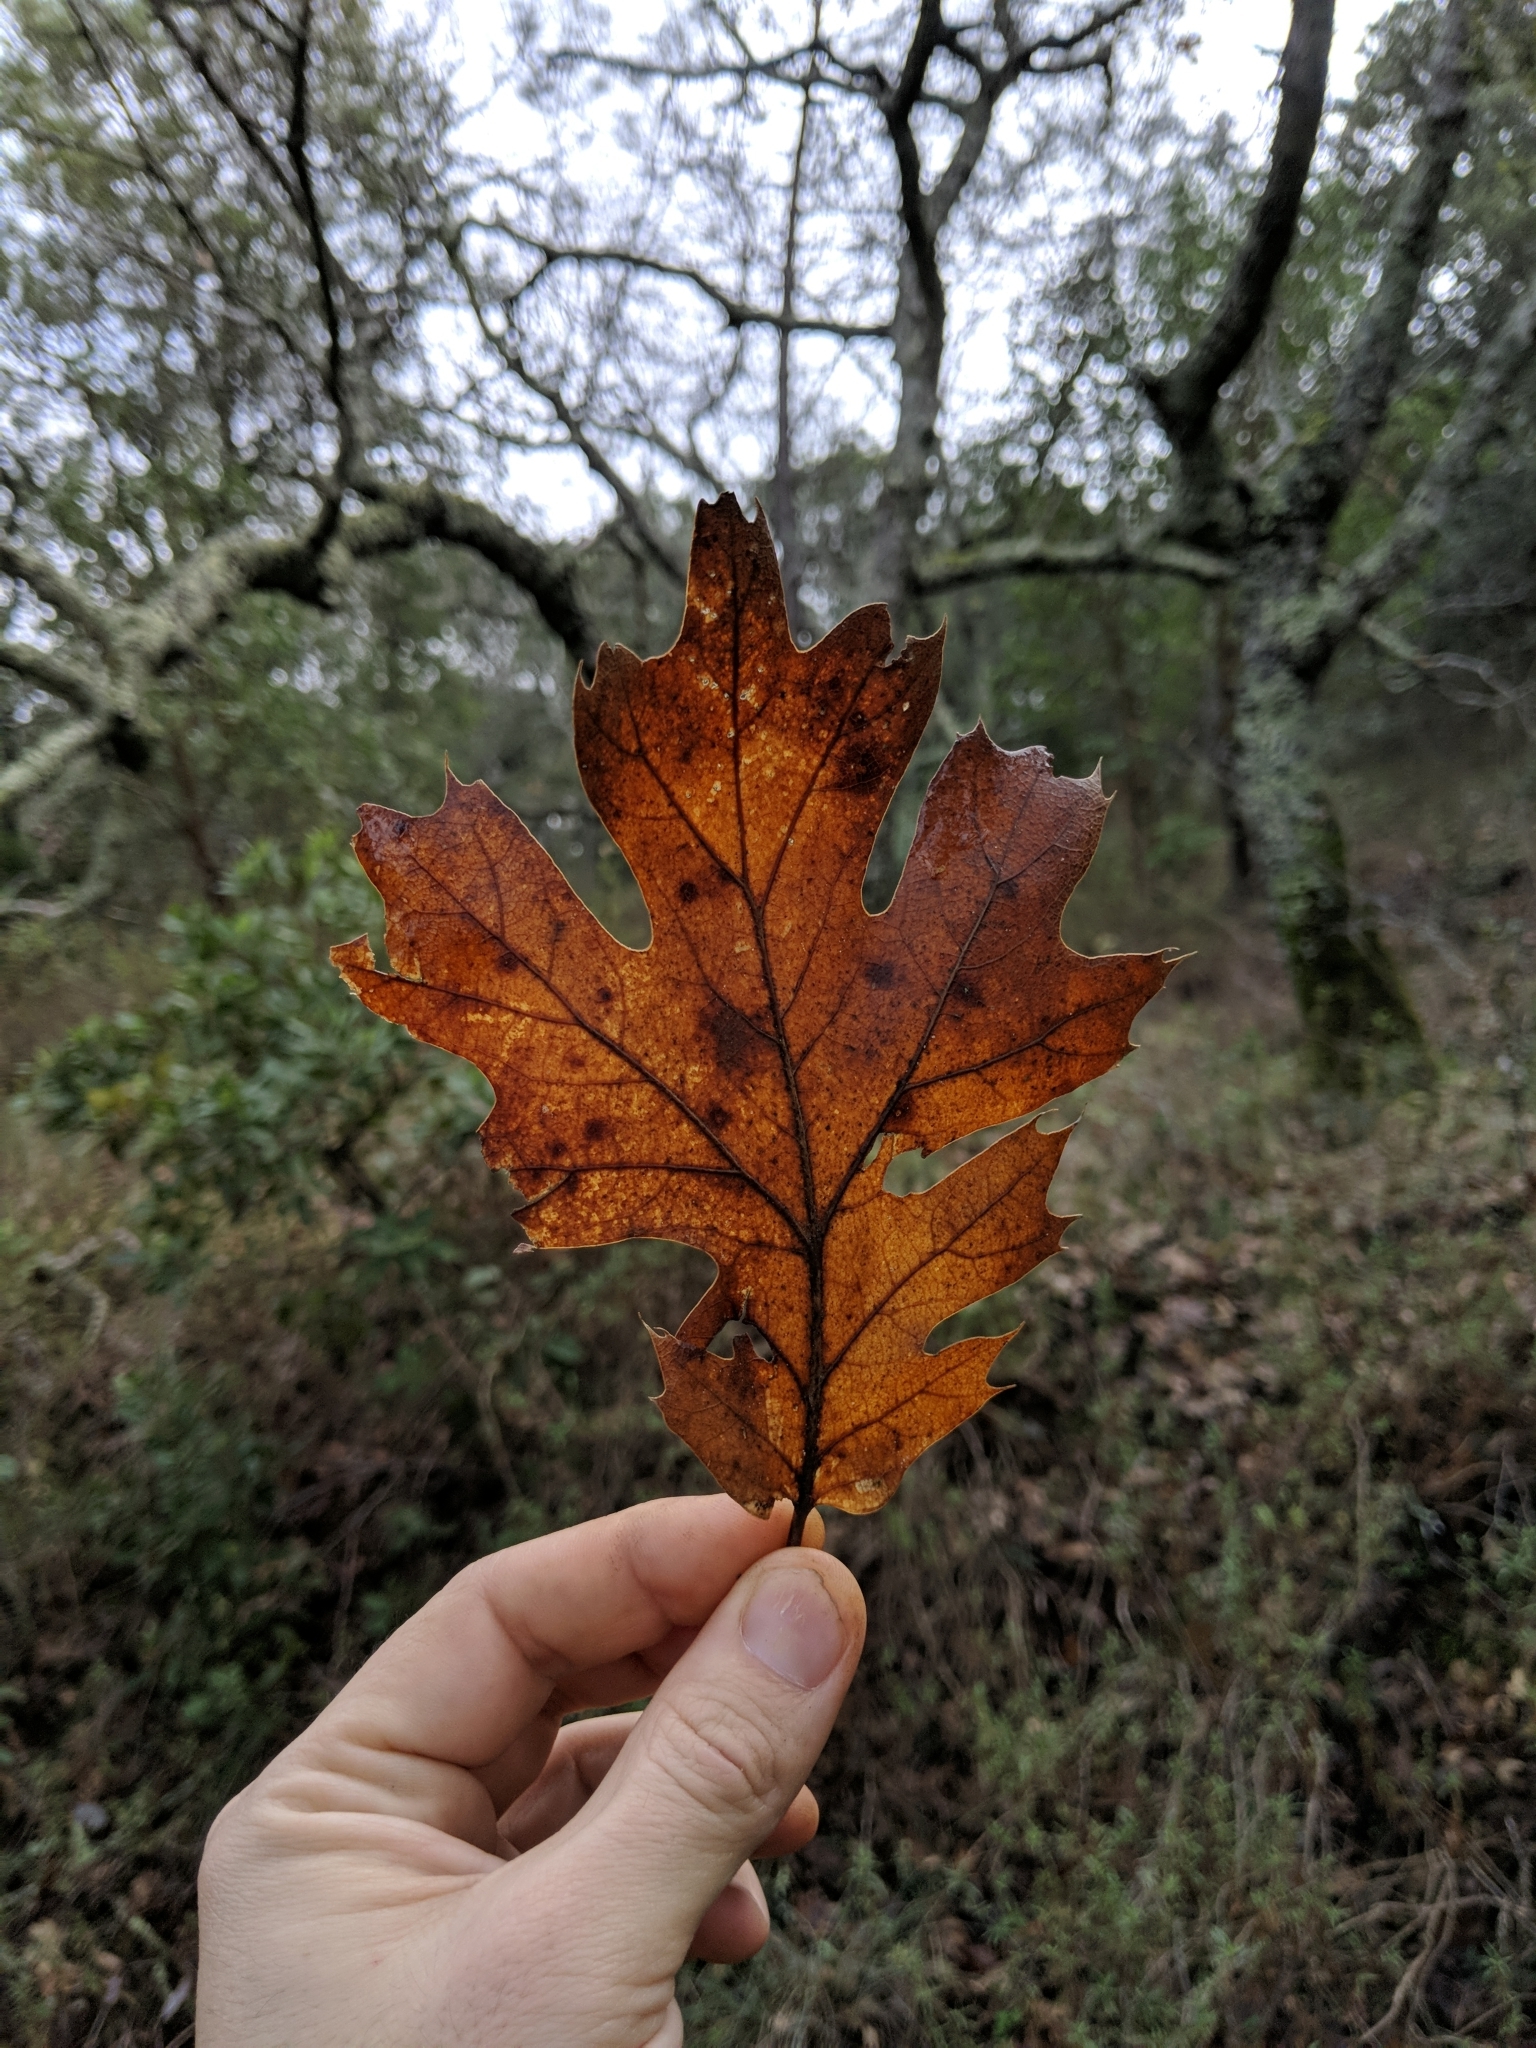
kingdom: Plantae
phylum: Tracheophyta
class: Magnoliopsida
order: Fagales
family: Fagaceae
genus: Quercus
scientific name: Quercus kelloggii
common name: California black oak
